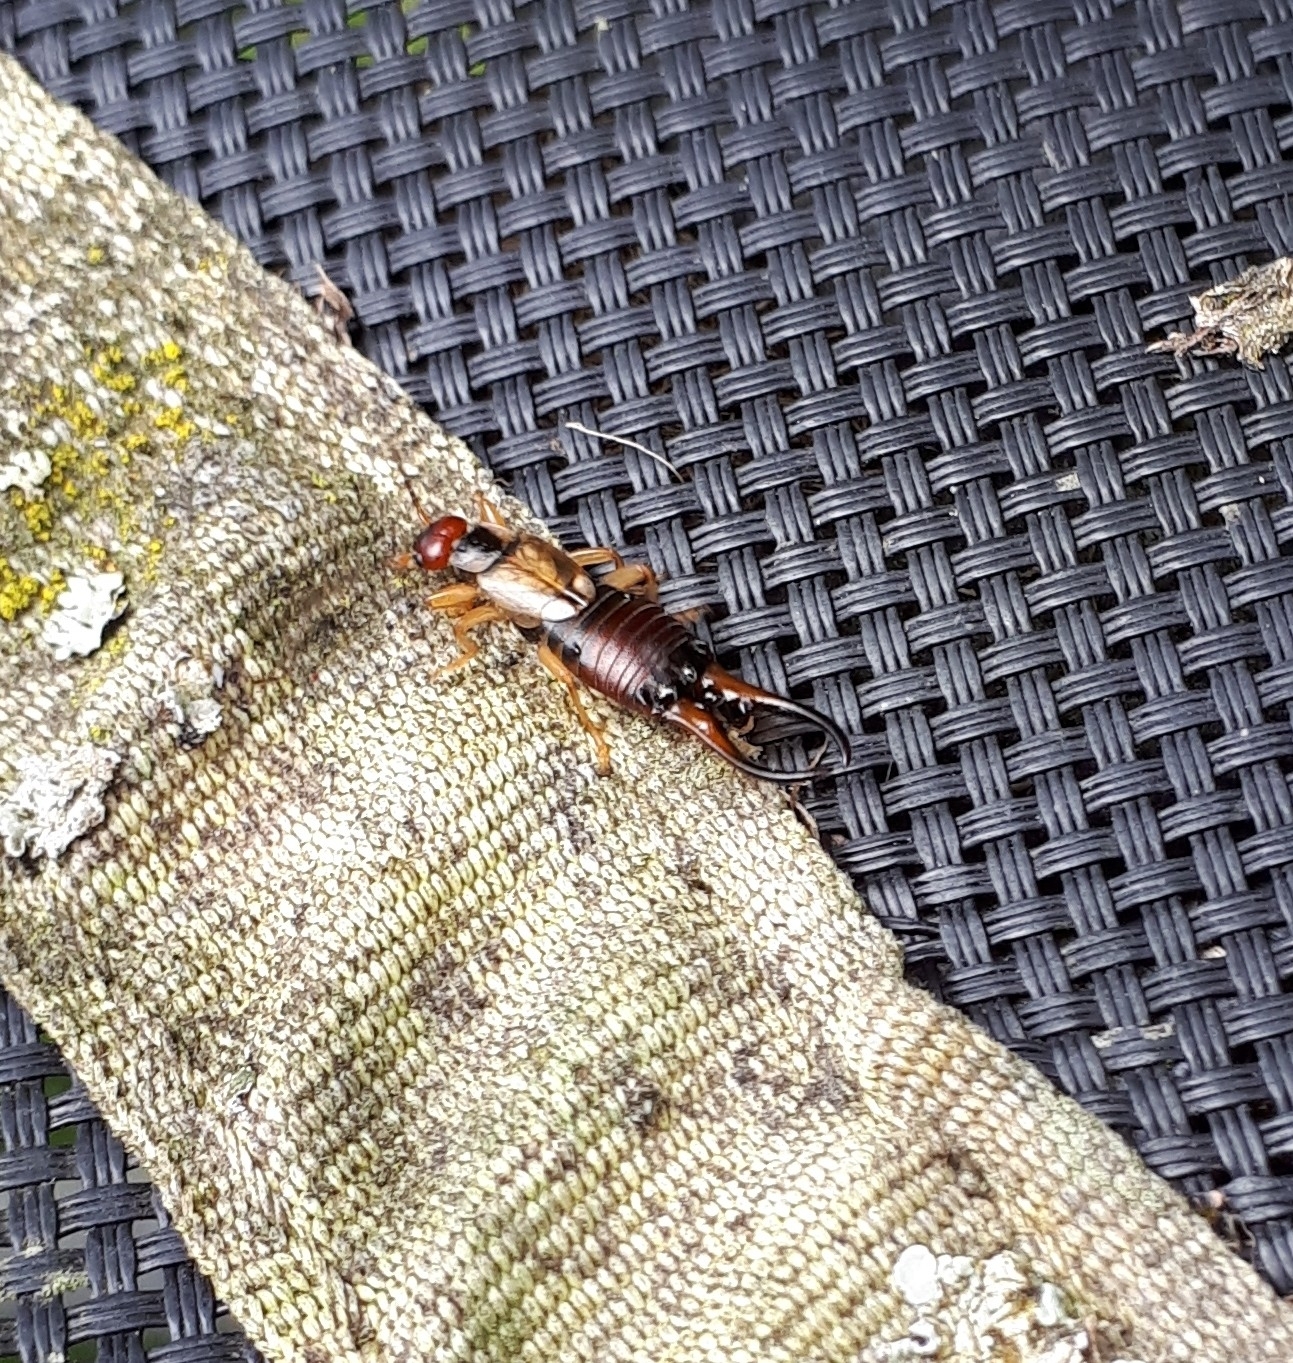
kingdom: Animalia
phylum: Arthropoda
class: Insecta
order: Dermaptera
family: Forficulidae
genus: Forficula
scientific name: Forficula
